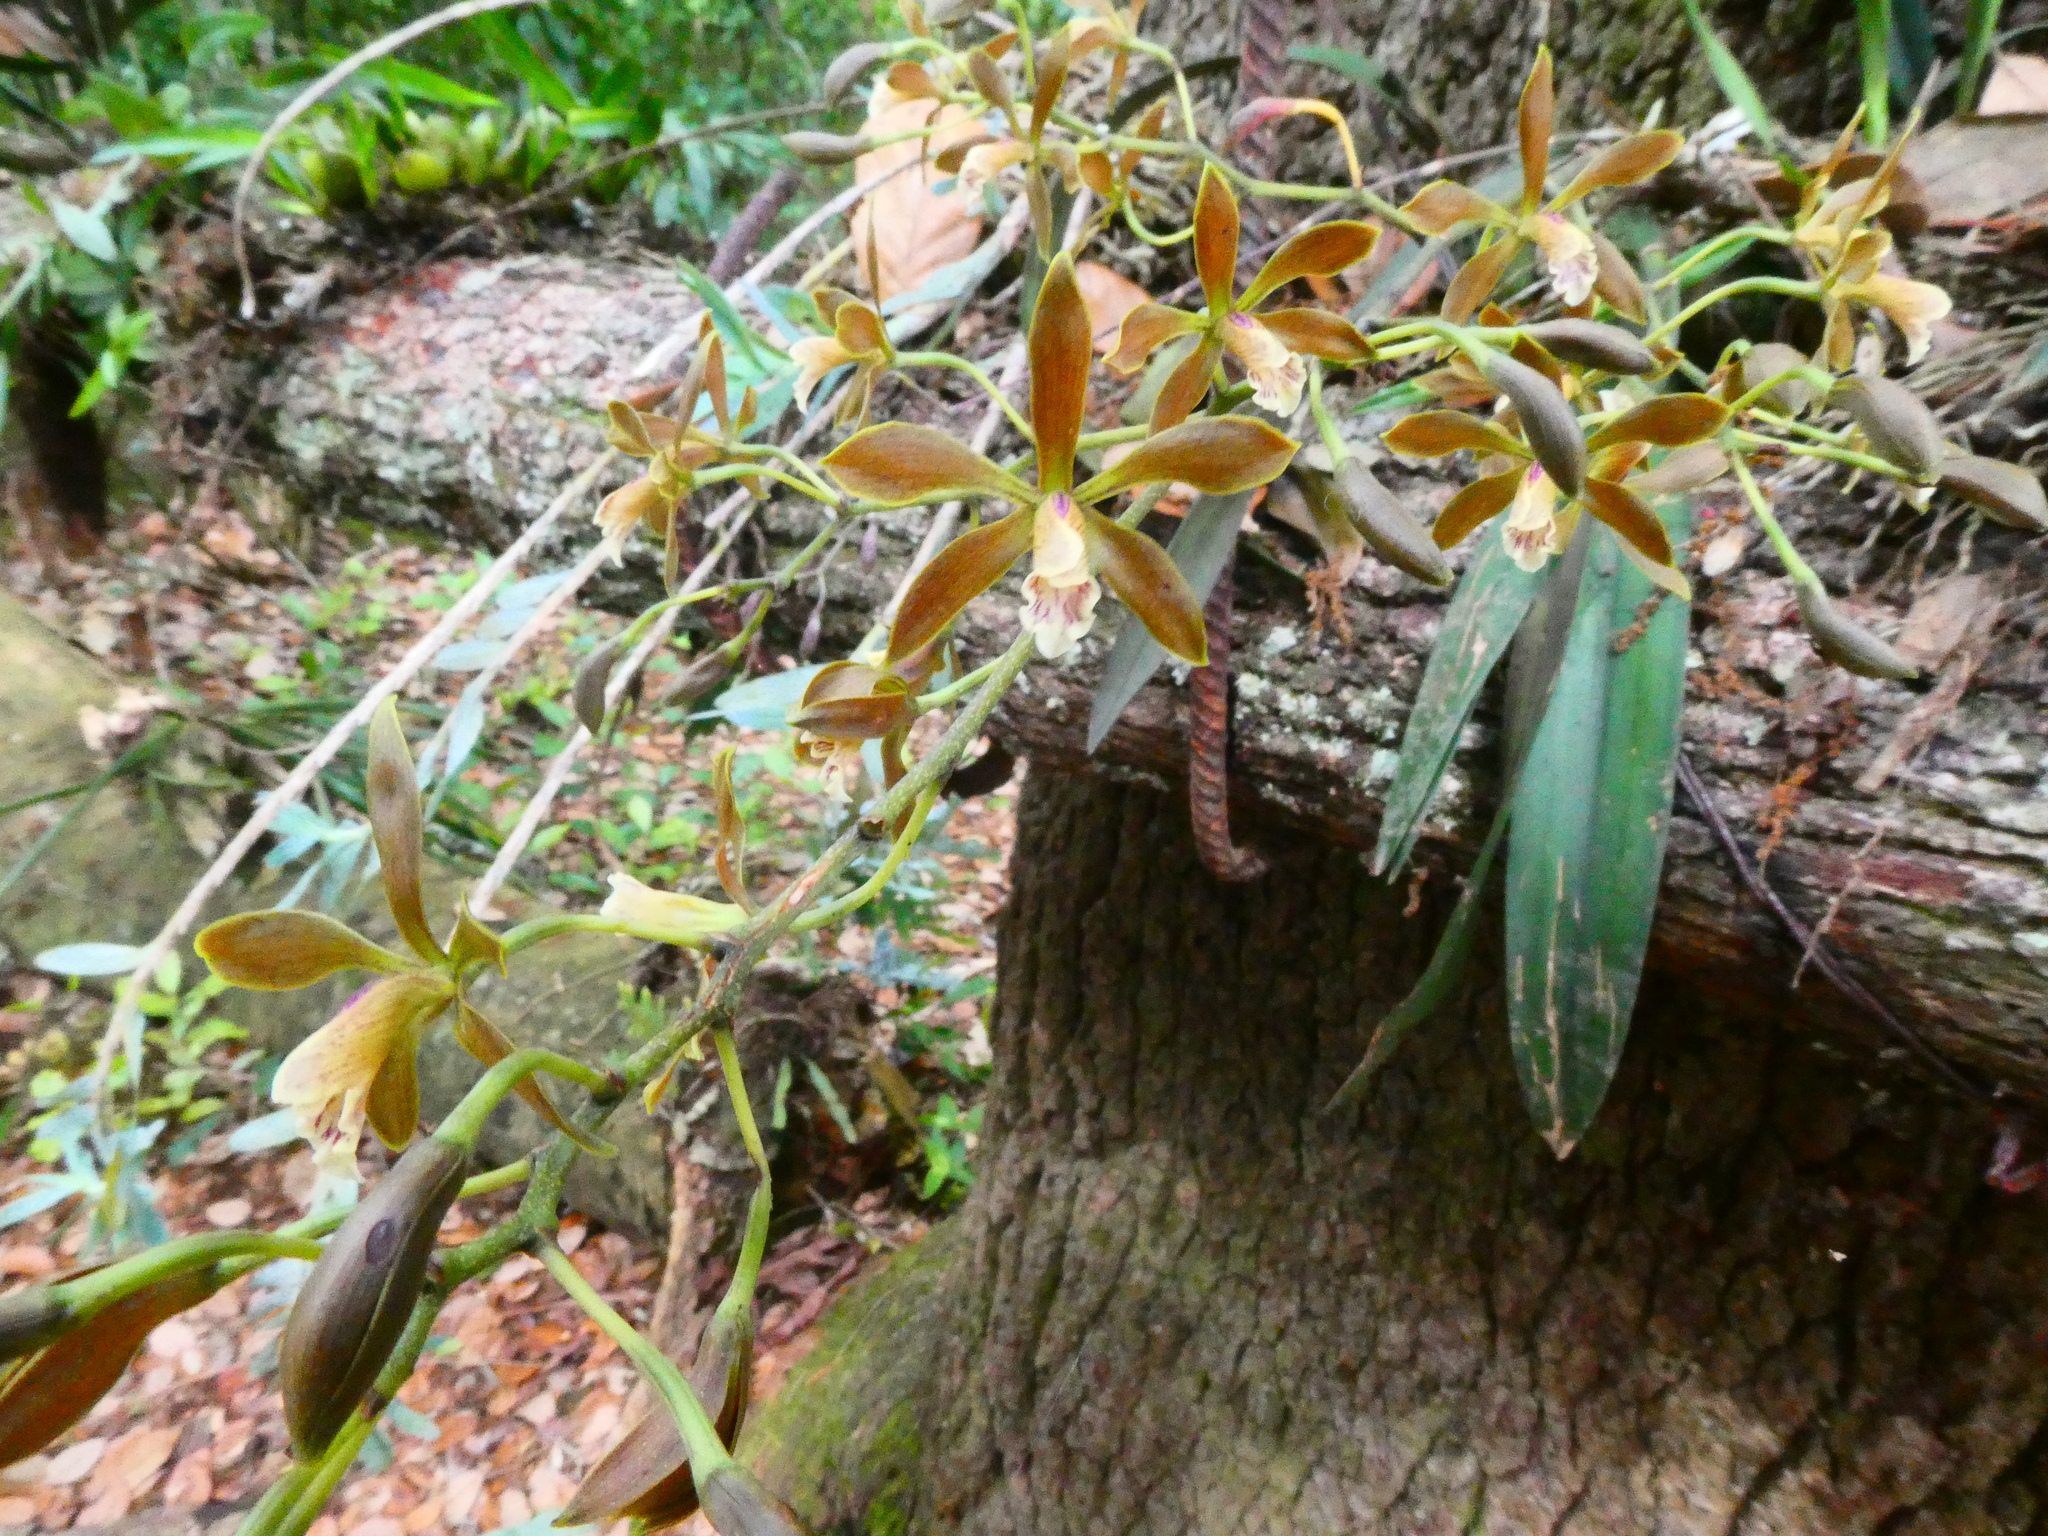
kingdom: Plantae
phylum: Tracheophyta
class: Liliopsida
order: Asparagales
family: Orchidaceae
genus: Encyclia
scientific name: Encyclia candollei
